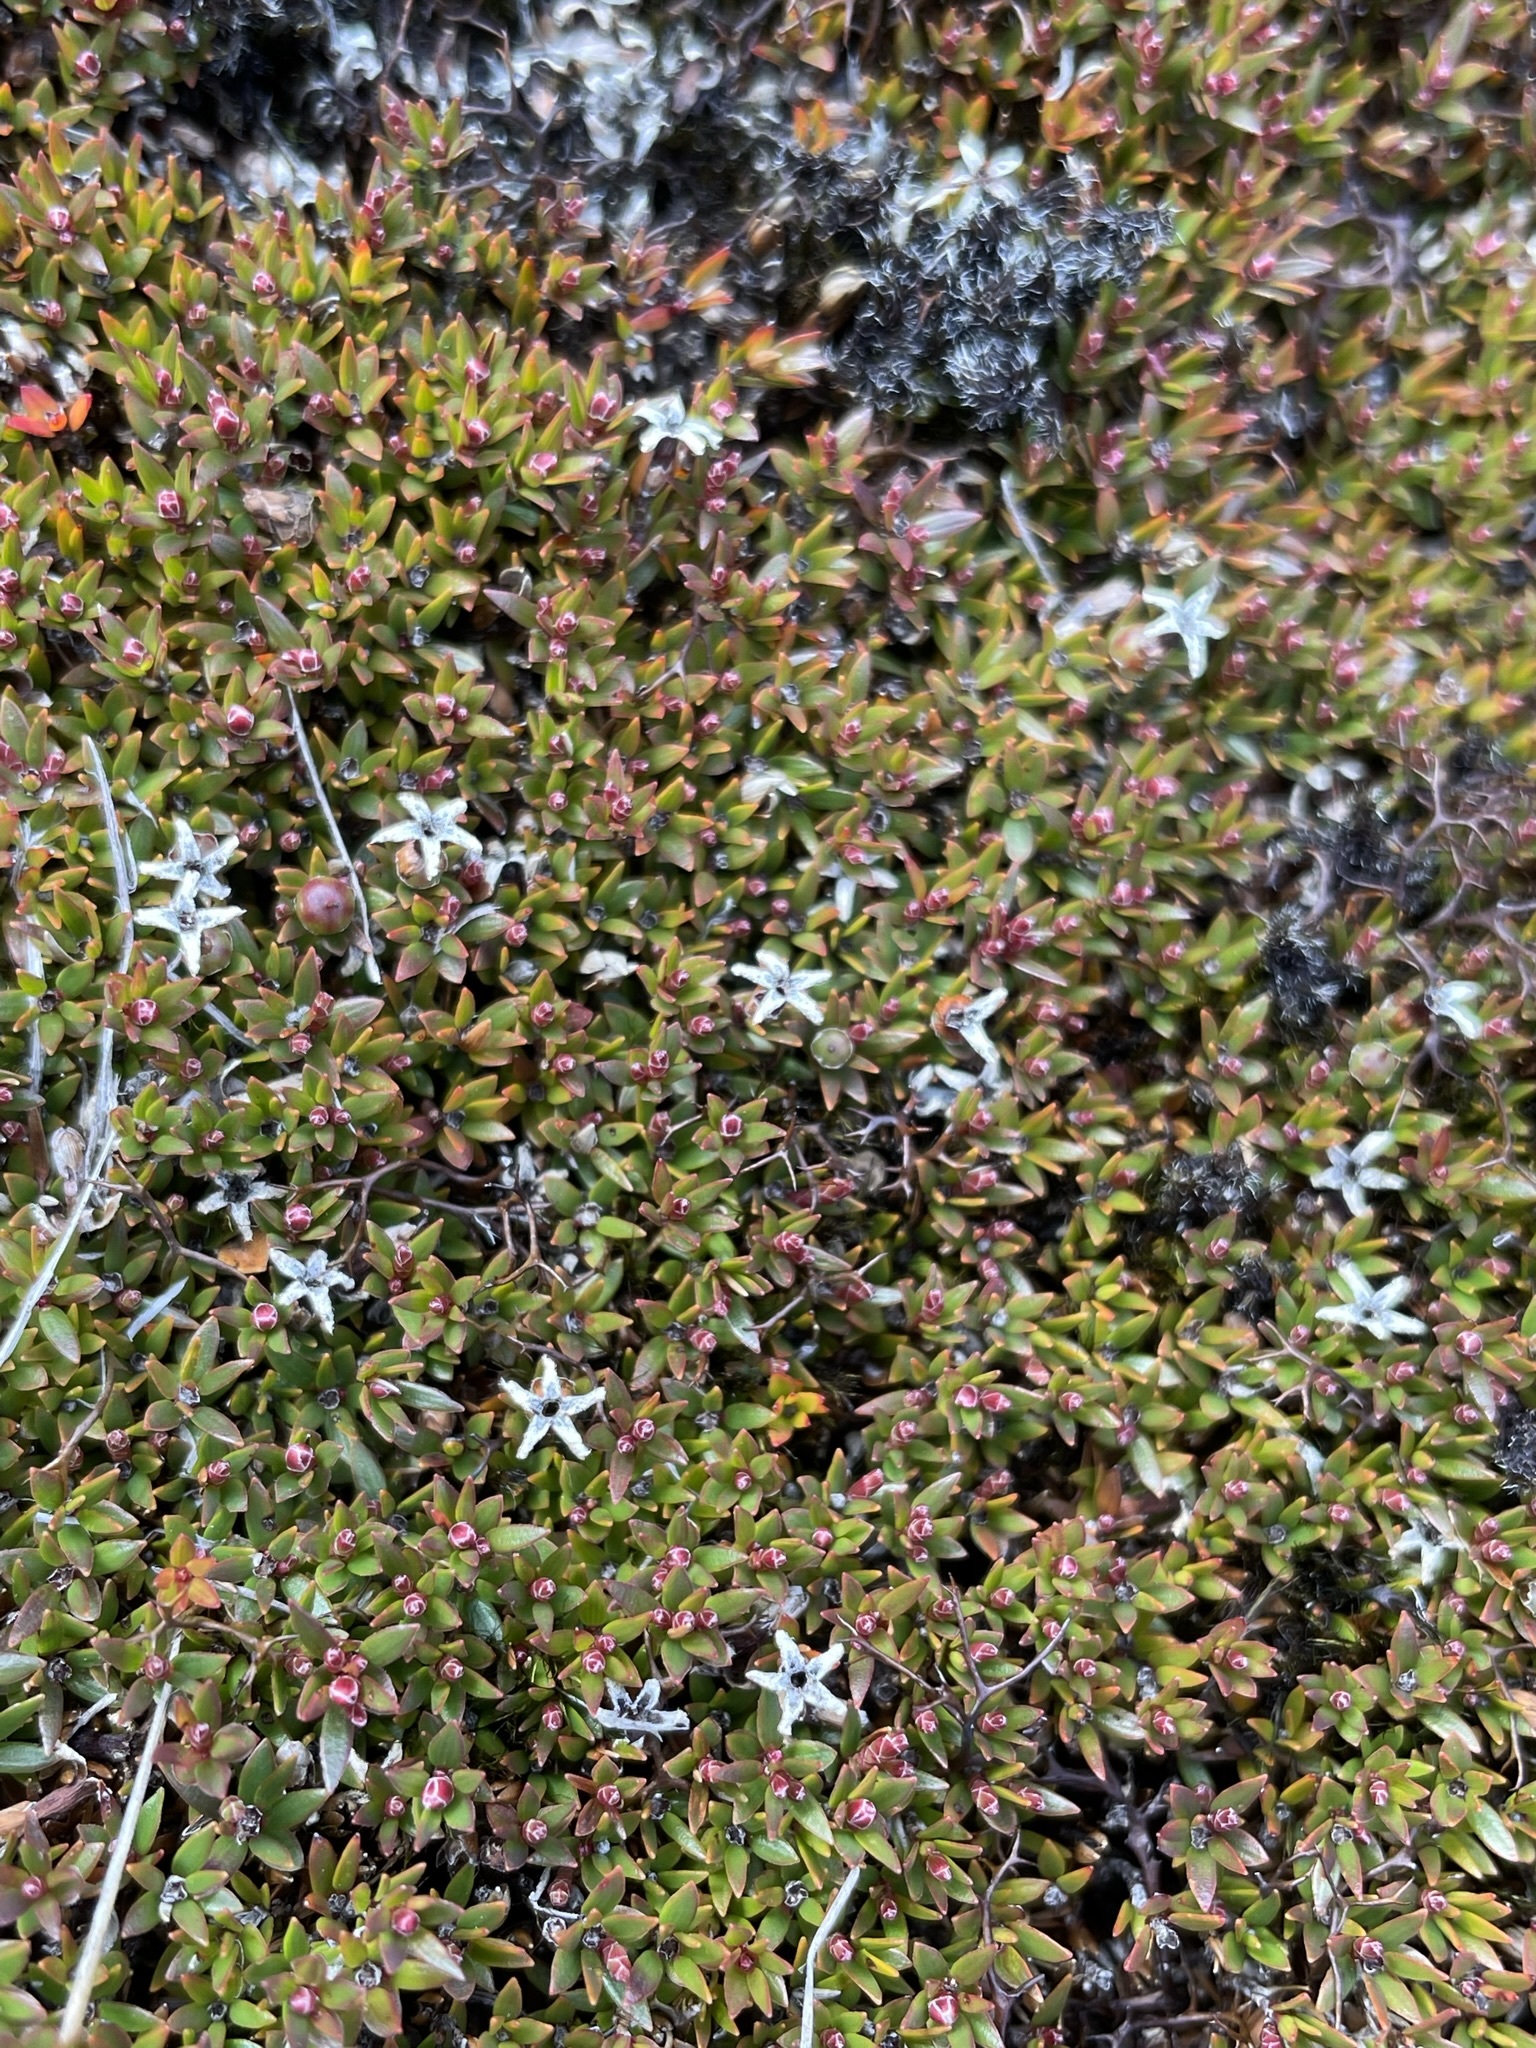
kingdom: Plantae
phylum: Tracheophyta
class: Magnoliopsida
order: Ericales
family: Ericaceae
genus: Pentachondra
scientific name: Pentachondra pumila
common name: Carpet-heath
